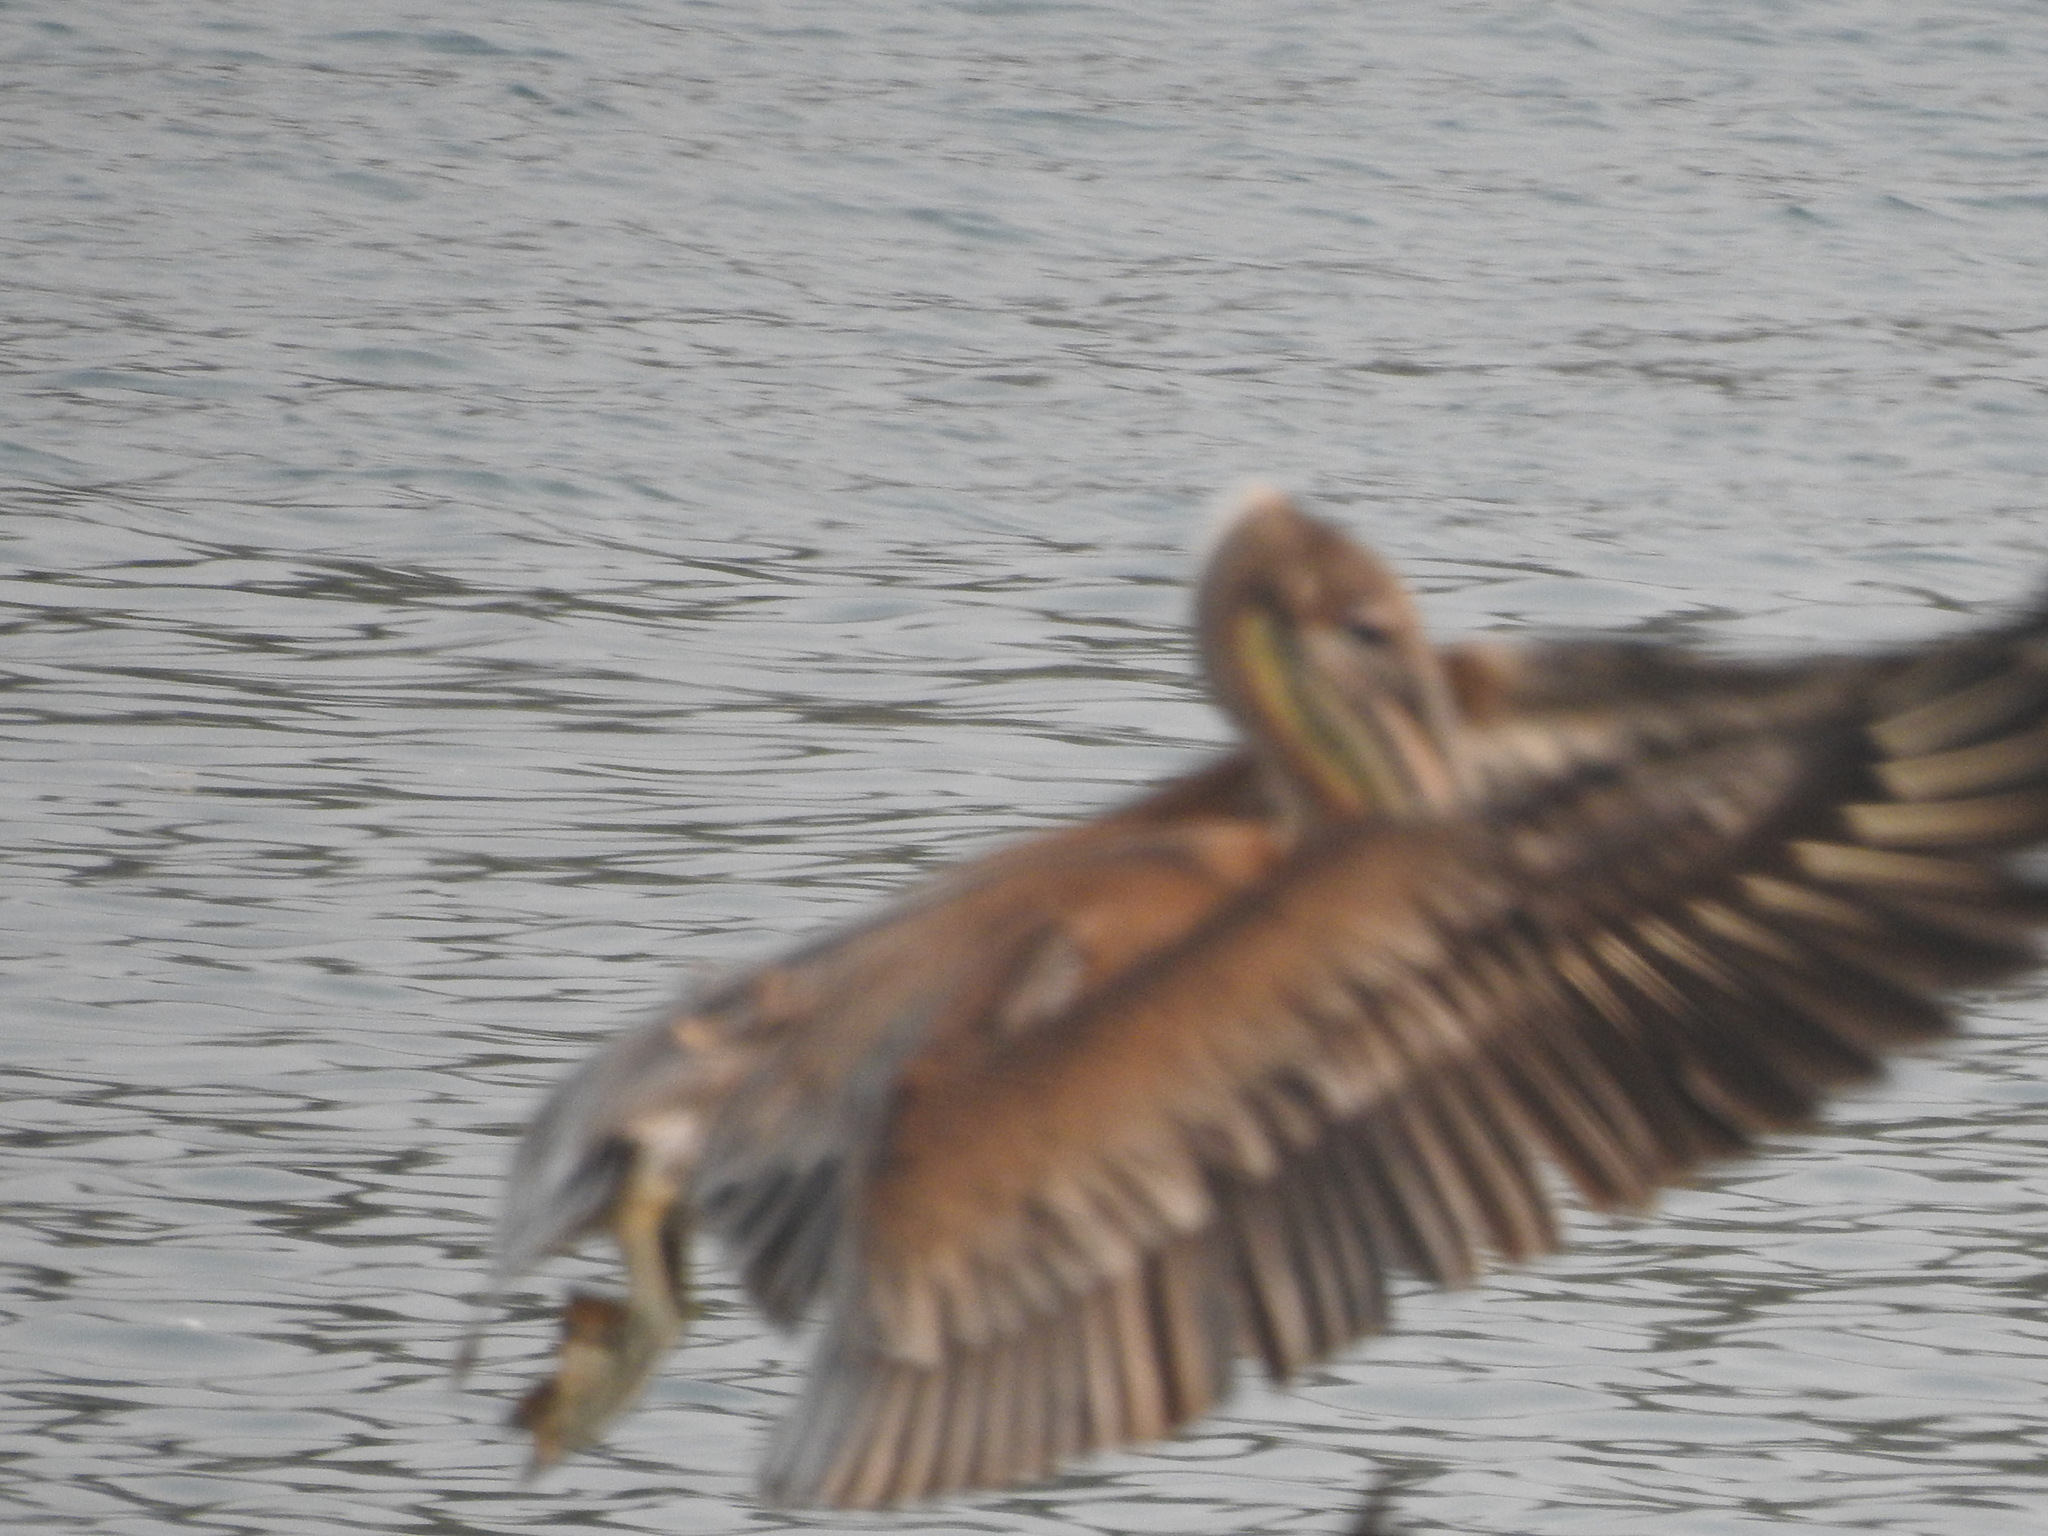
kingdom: Animalia
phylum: Chordata
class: Aves
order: Pelecaniformes
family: Pelecanidae
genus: Pelecanus
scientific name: Pelecanus occidentalis
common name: Brown pelican
